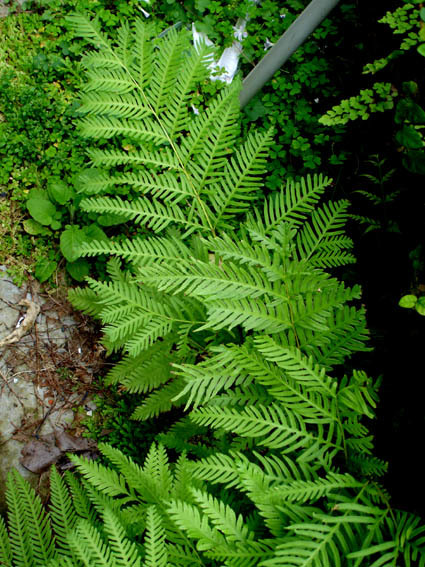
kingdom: Plantae
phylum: Tracheophyta
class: Polypodiopsida
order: Polypodiales
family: Pteridaceae
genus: Pteris
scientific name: Pteris dentata
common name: Toothed brake
